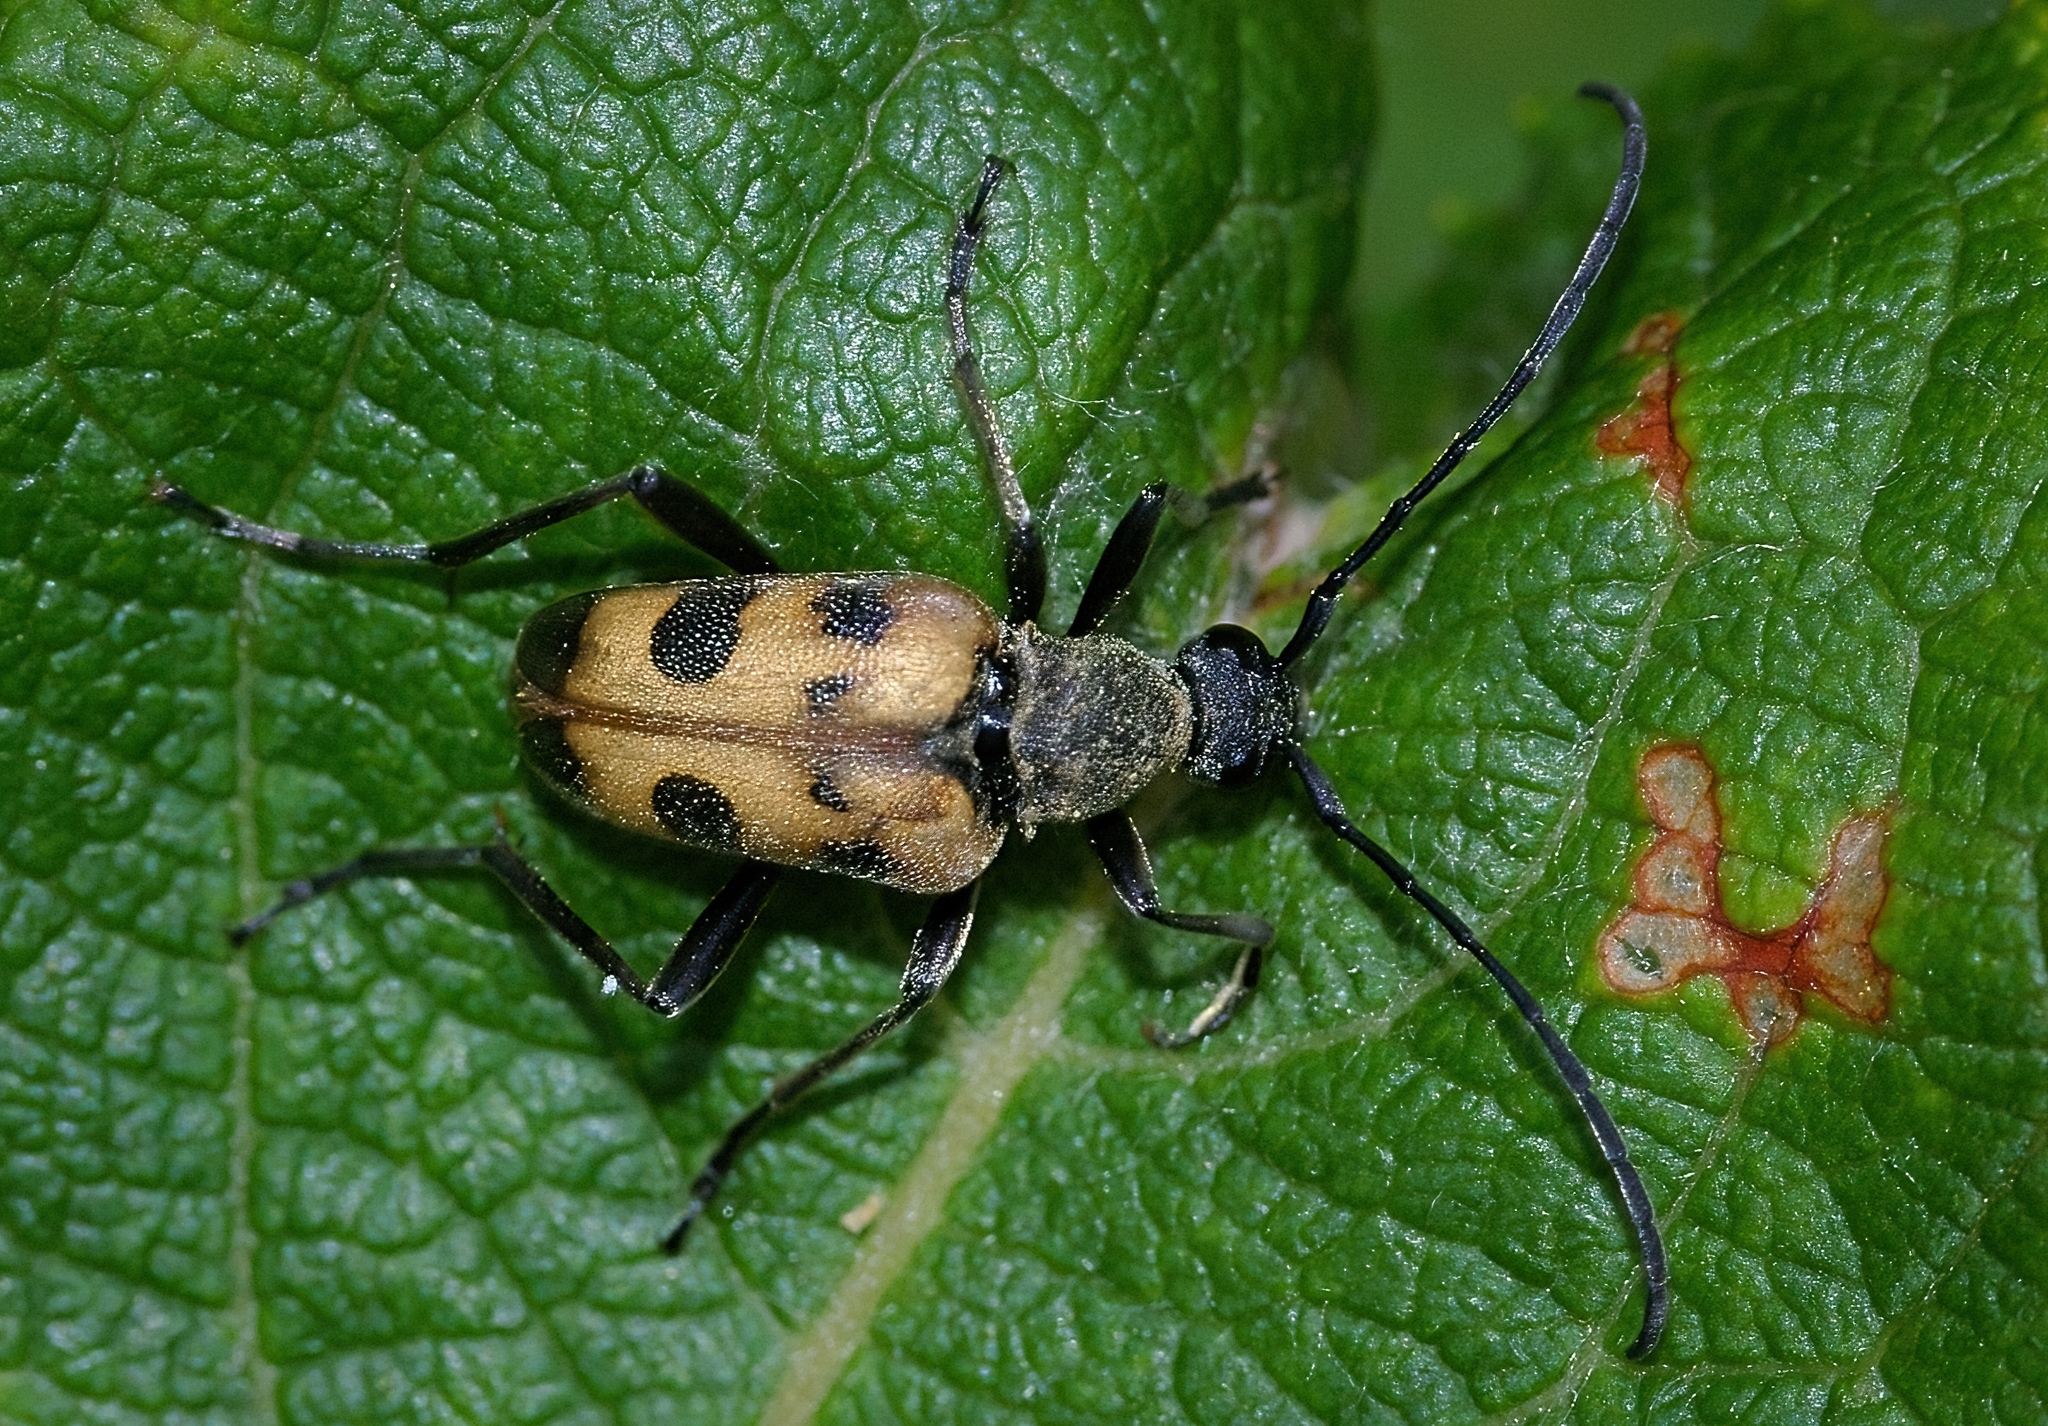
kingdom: Animalia
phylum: Arthropoda
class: Insecta
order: Coleoptera
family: Cerambycidae
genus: Pachytodes
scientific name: Pachytodes cerambyciformis
